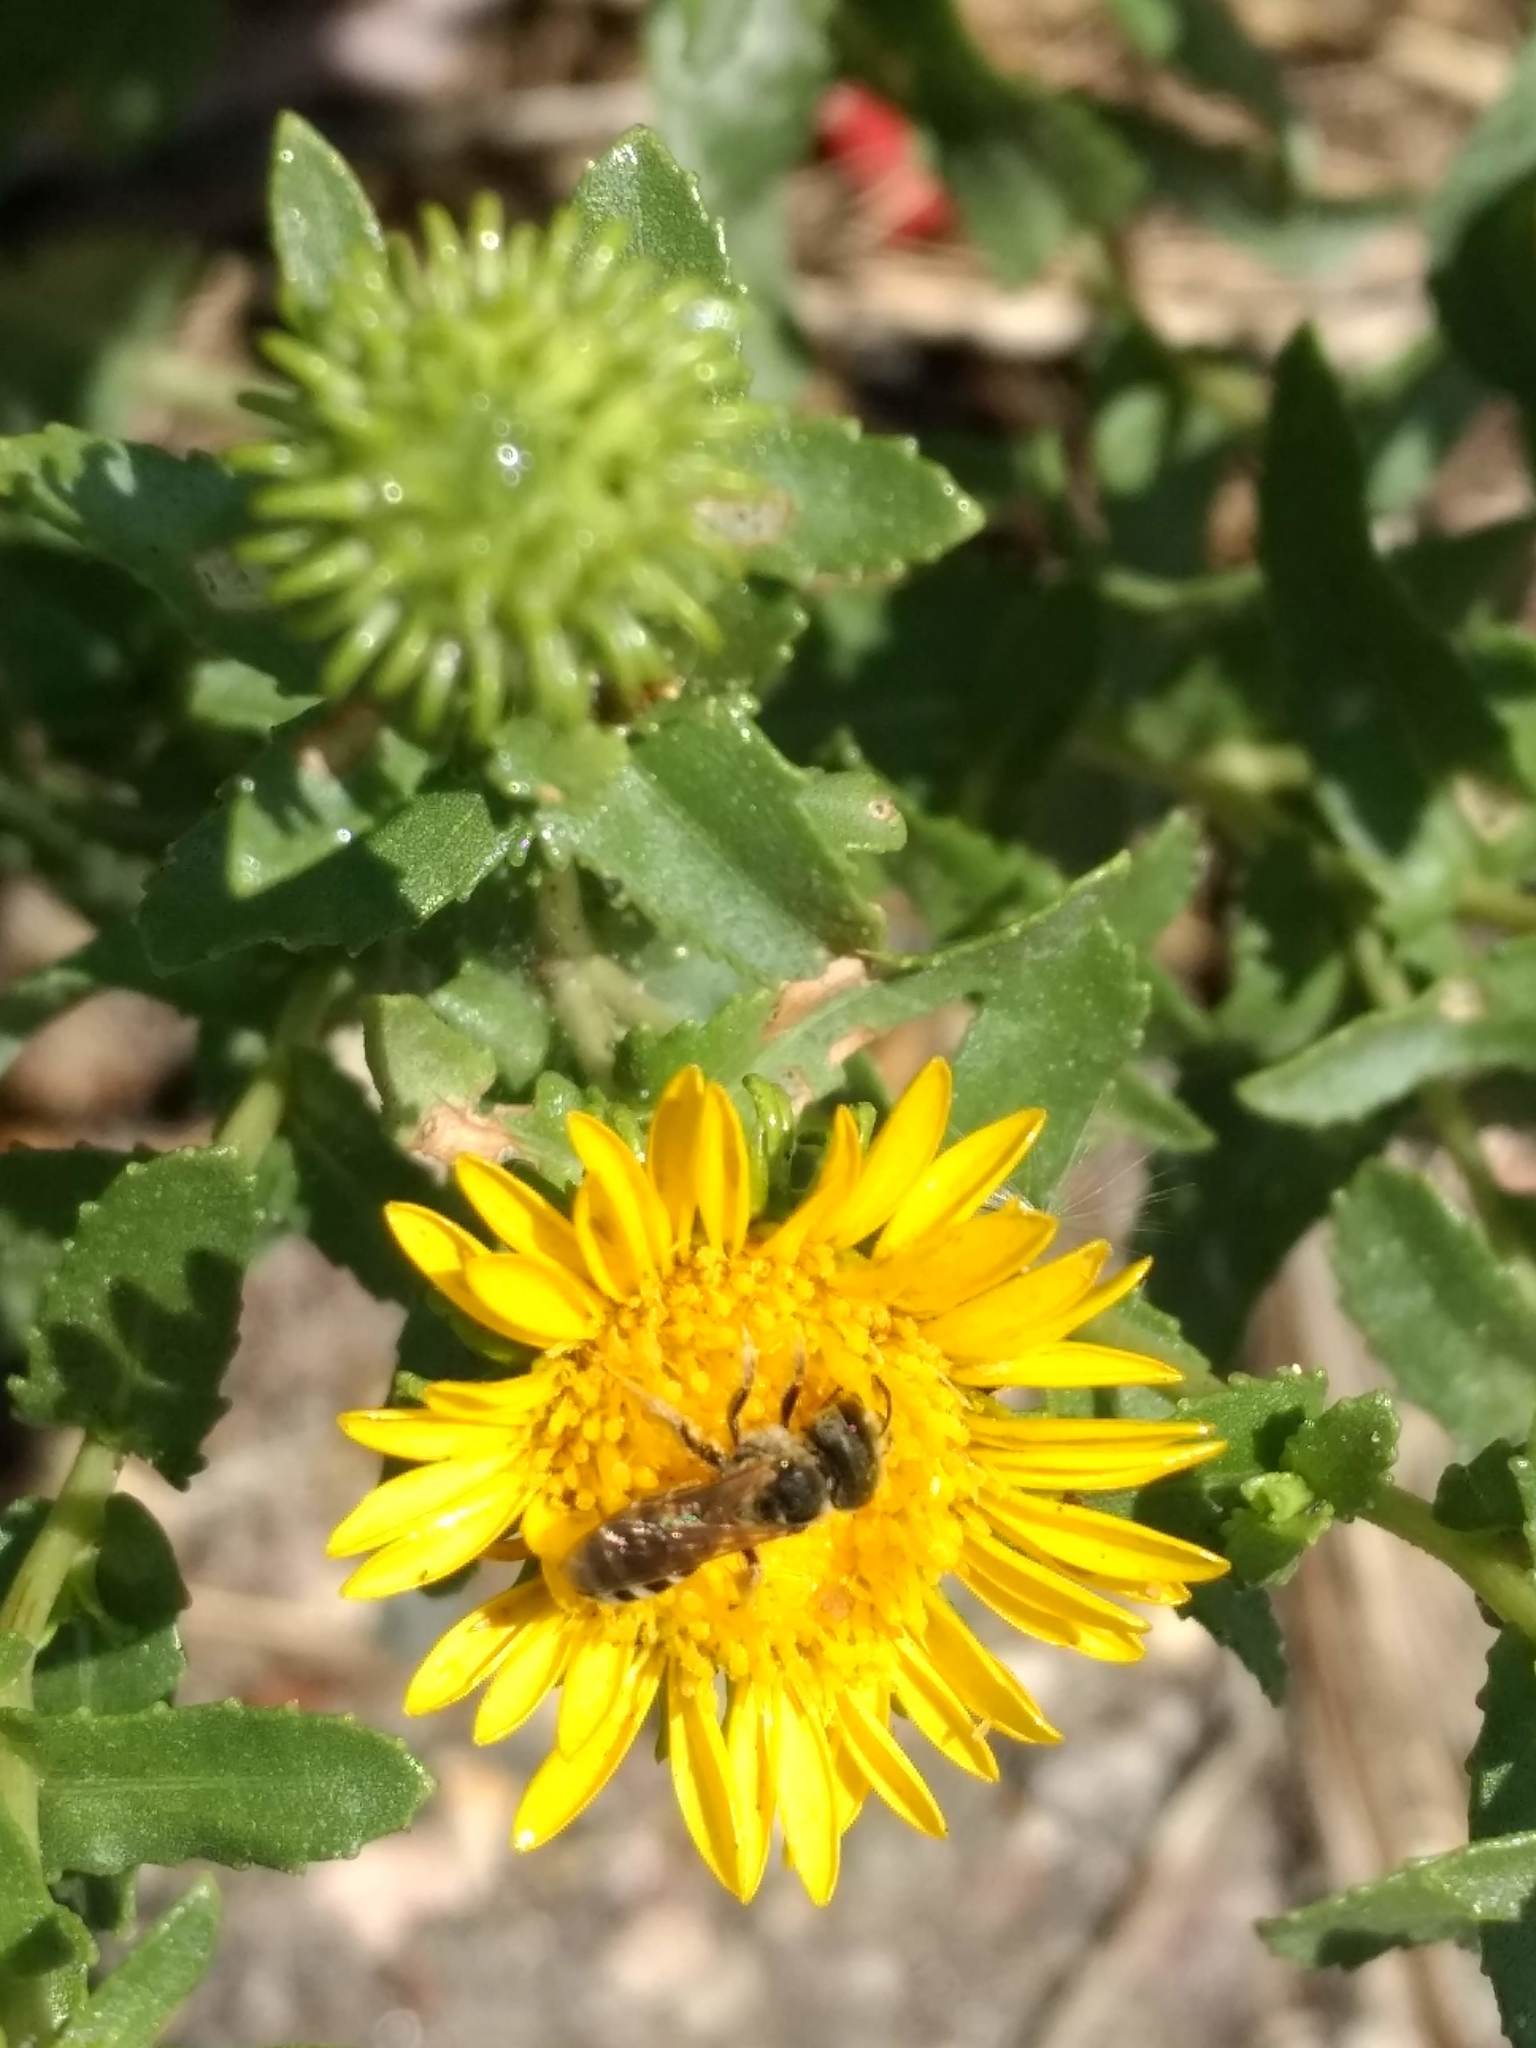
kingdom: Animalia
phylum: Arthropoda
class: Insecta
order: Hymenoptera
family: Halictidae
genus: Halictus
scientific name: Halictus ligatus
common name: Ligated furrow bee
